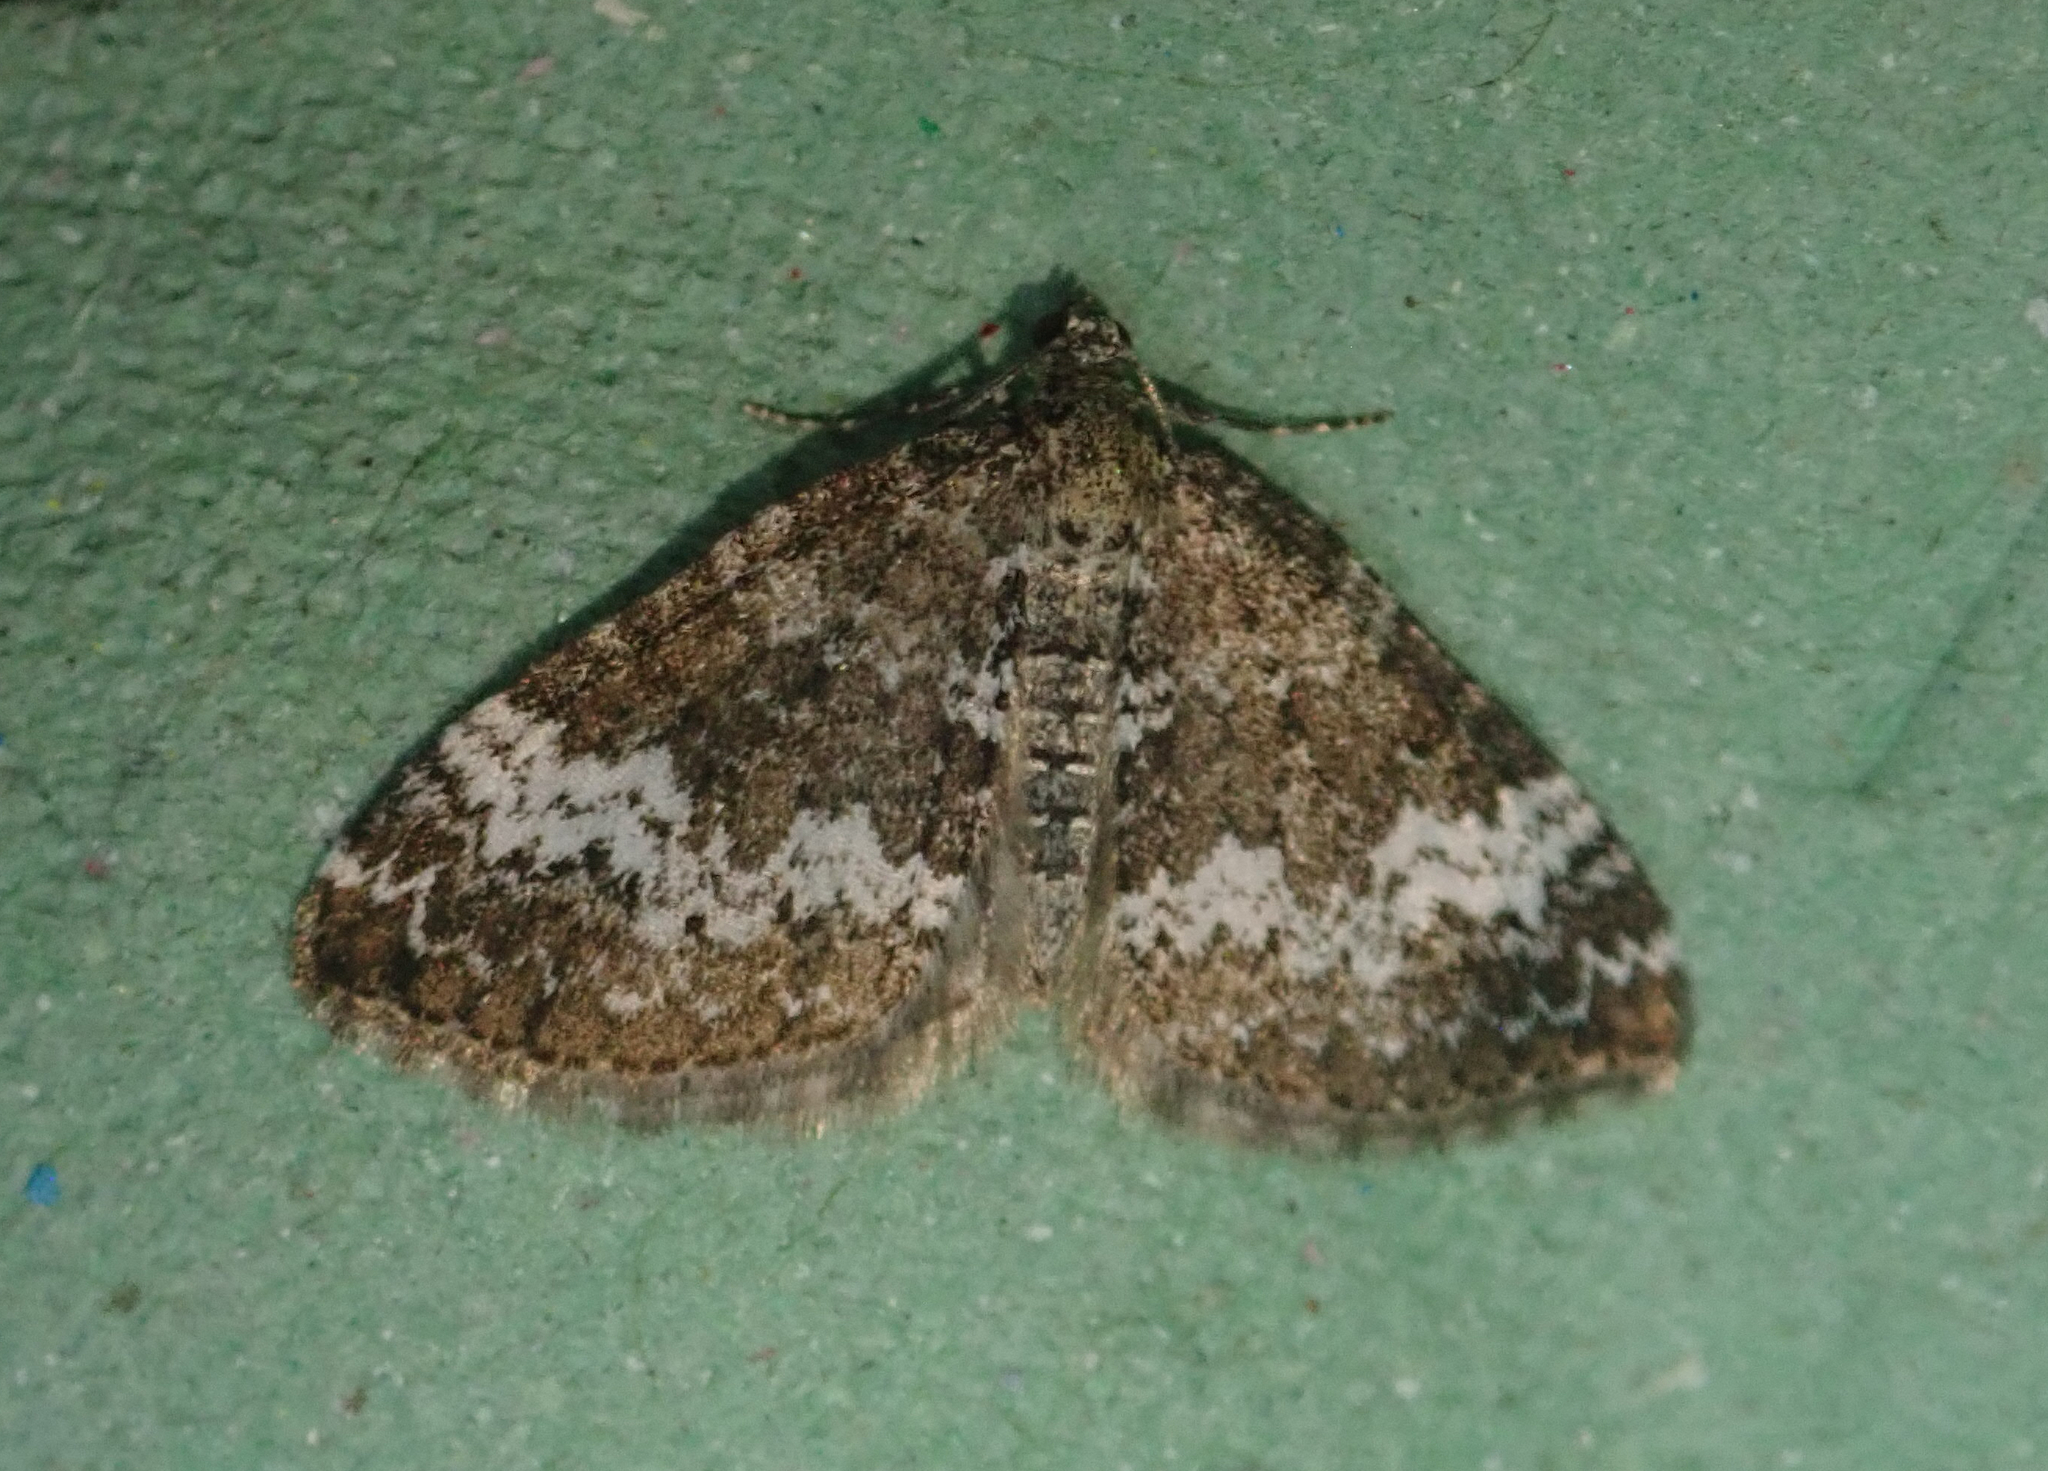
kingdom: Animalia
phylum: Arthropoda
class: Insecta
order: Lepidoptera
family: Geometridae
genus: Perizoma
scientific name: Perizoma alchemillata
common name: Small rivulet
